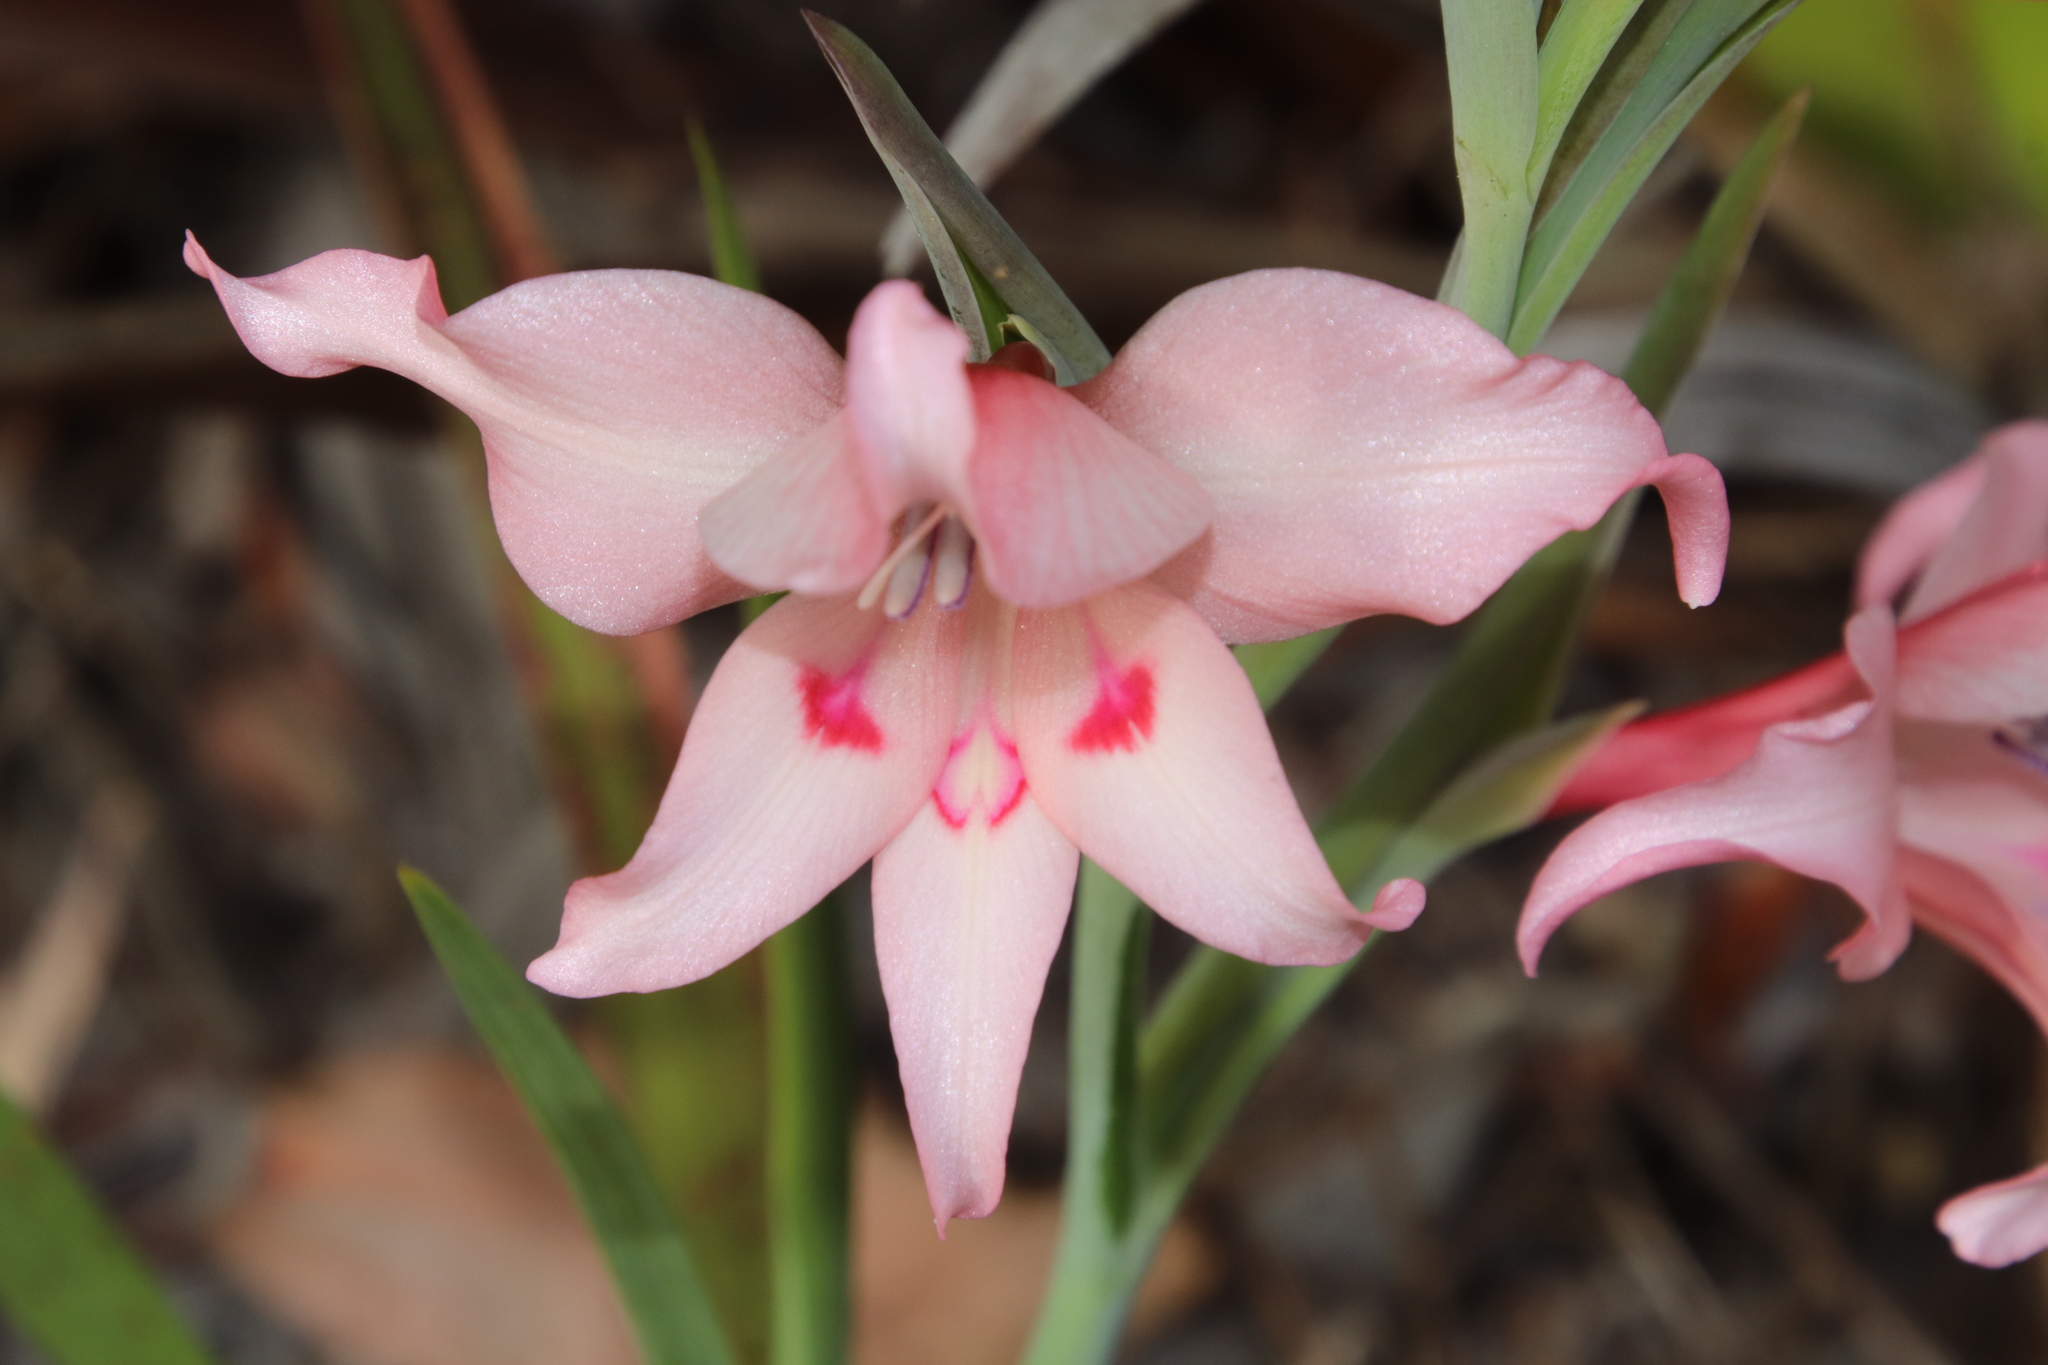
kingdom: Plantae
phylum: Tracheophyta
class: Liliopsida
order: Asparagales
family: Iridaceae
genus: Gladiolus
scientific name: Gladiolus carneus
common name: Painted-lady
